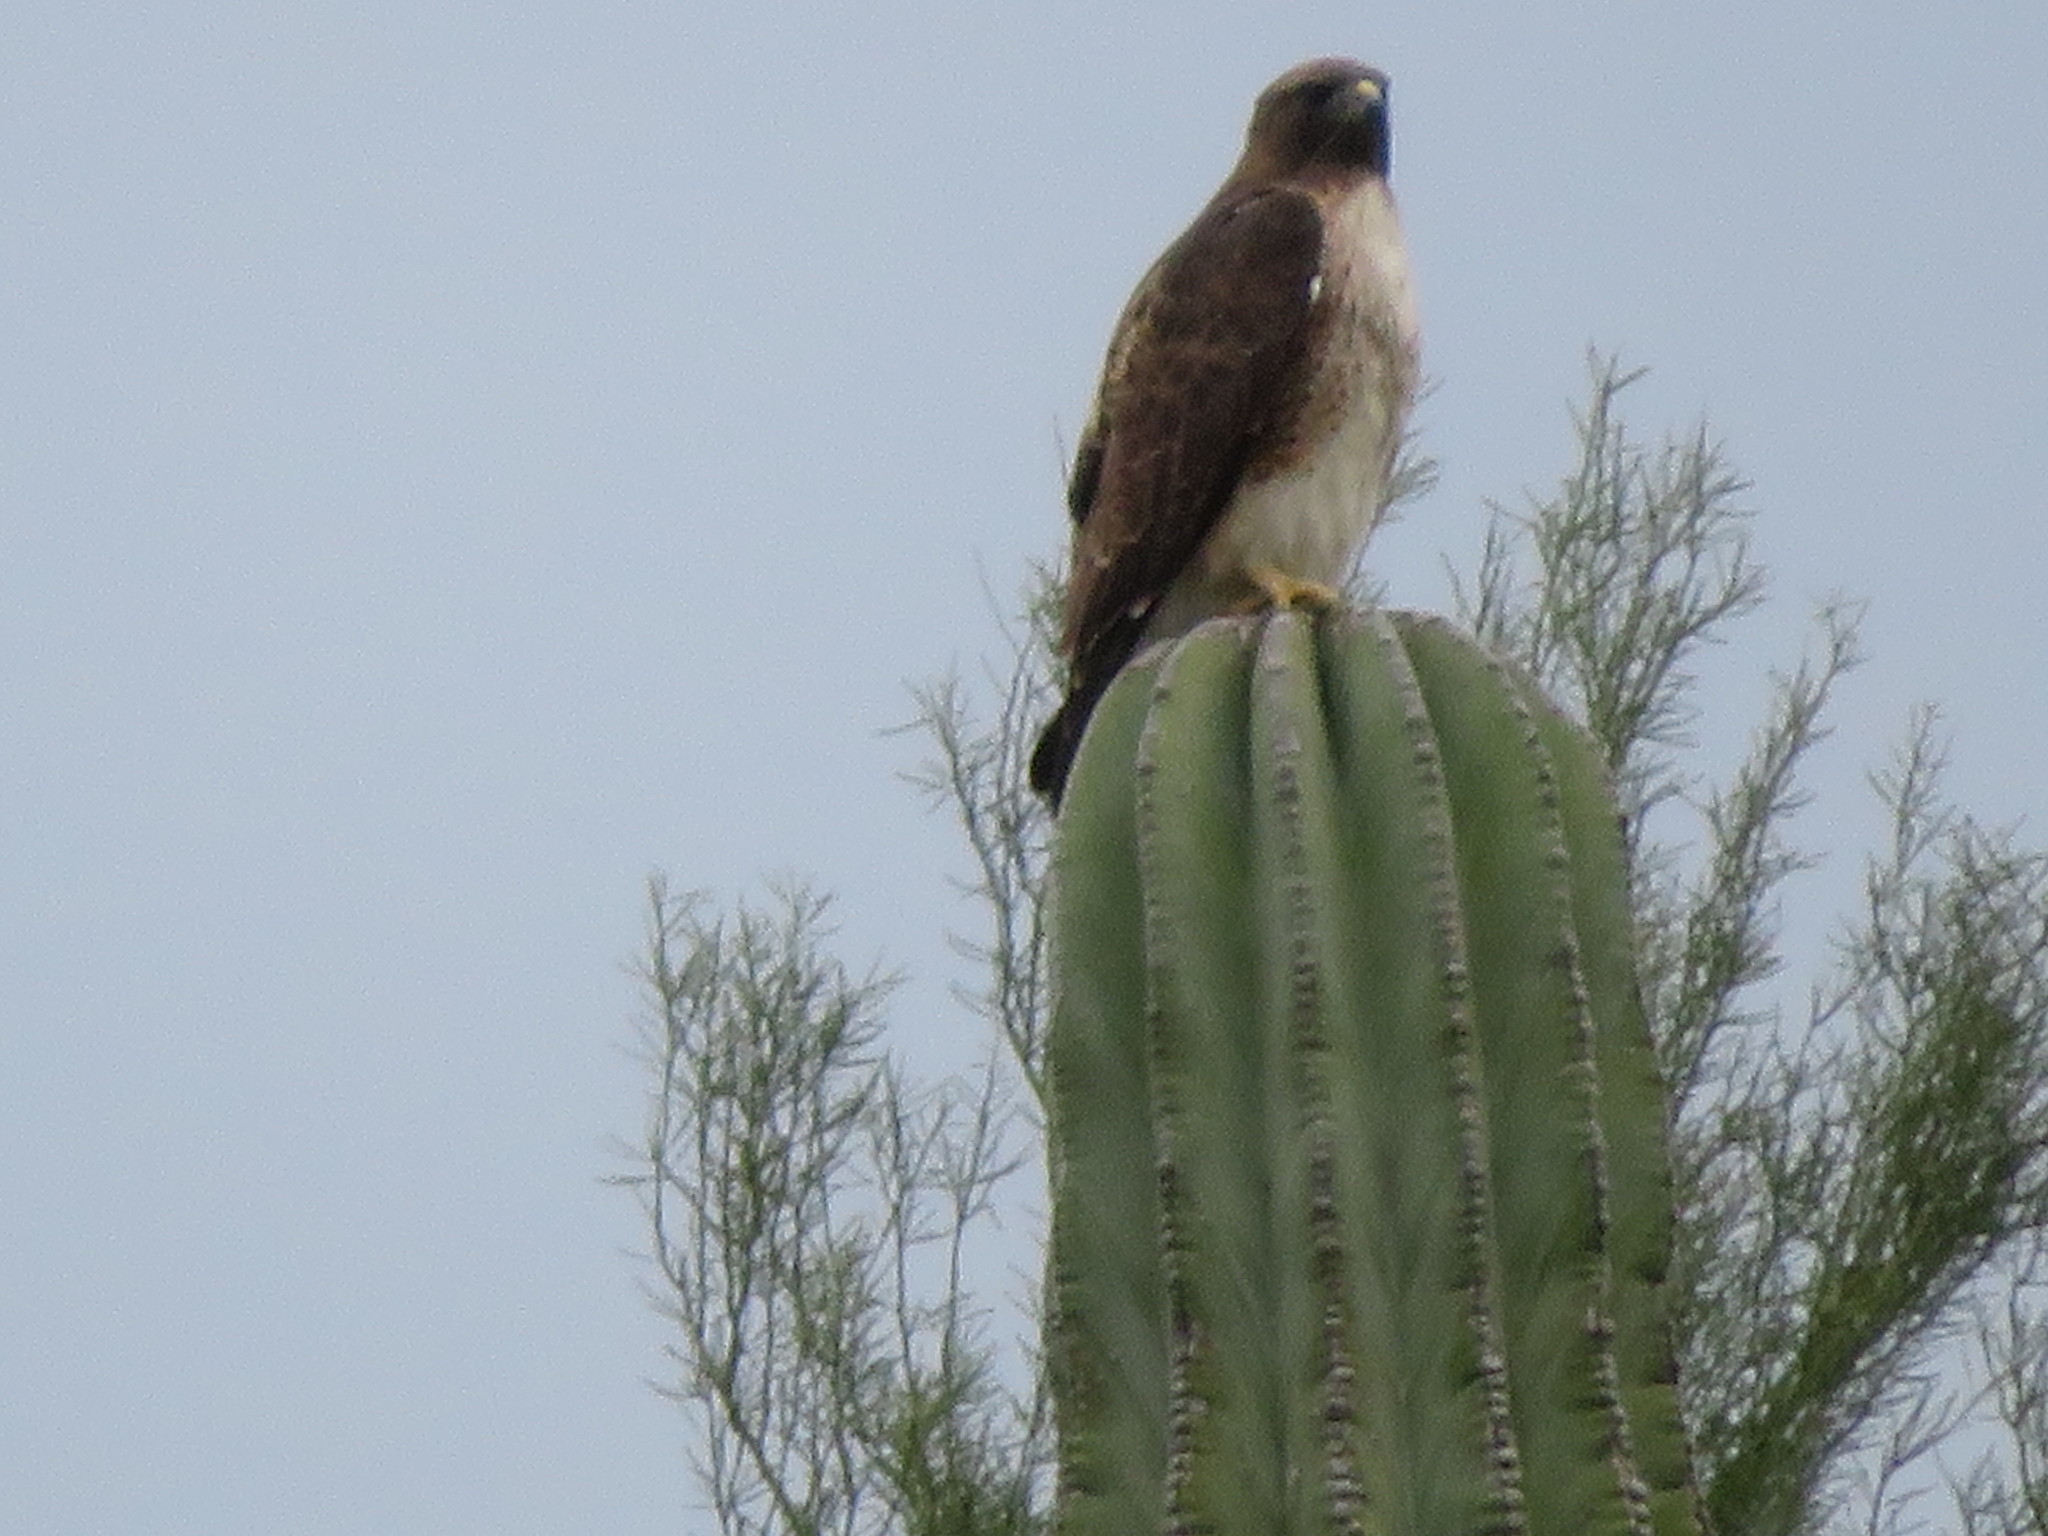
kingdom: Animalia
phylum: Chordata
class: Aves
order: Accipitriformes
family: Accipitridae
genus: Buteo
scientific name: Buteo jamaicensis
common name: Red-tailed hawk
